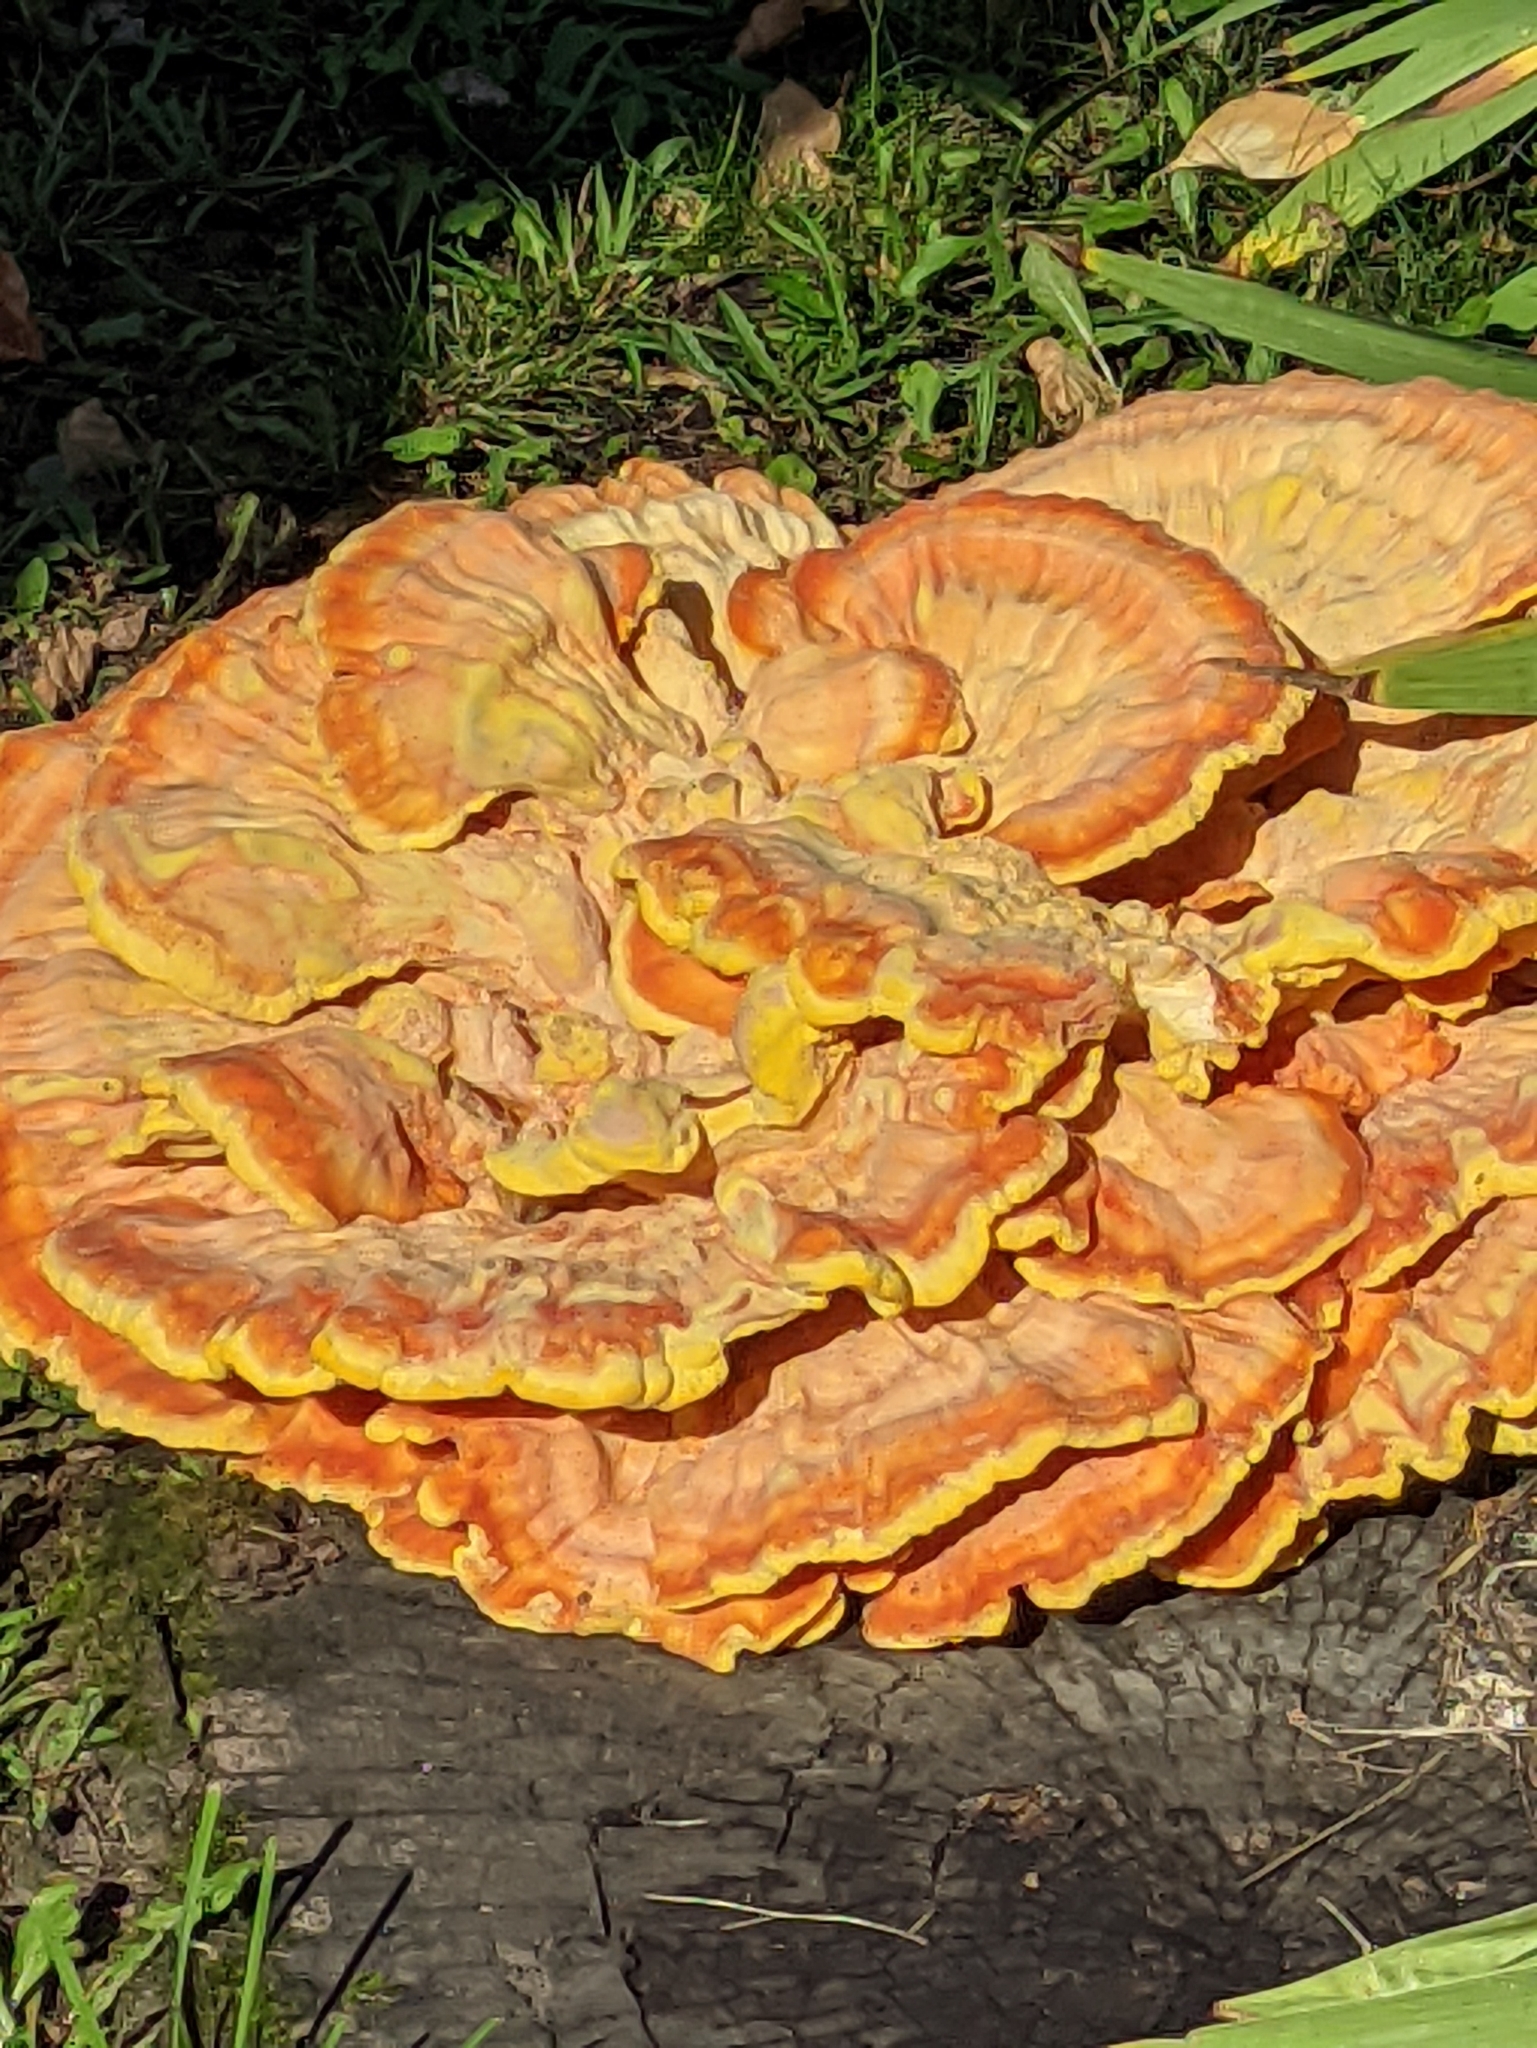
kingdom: Fungi
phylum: Basidiomycota
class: Agaricomycetes
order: Polyporales
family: Laetiporaceae
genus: Laetiporus
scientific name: Laetiporus sulphureus
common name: Chicken of the woods
